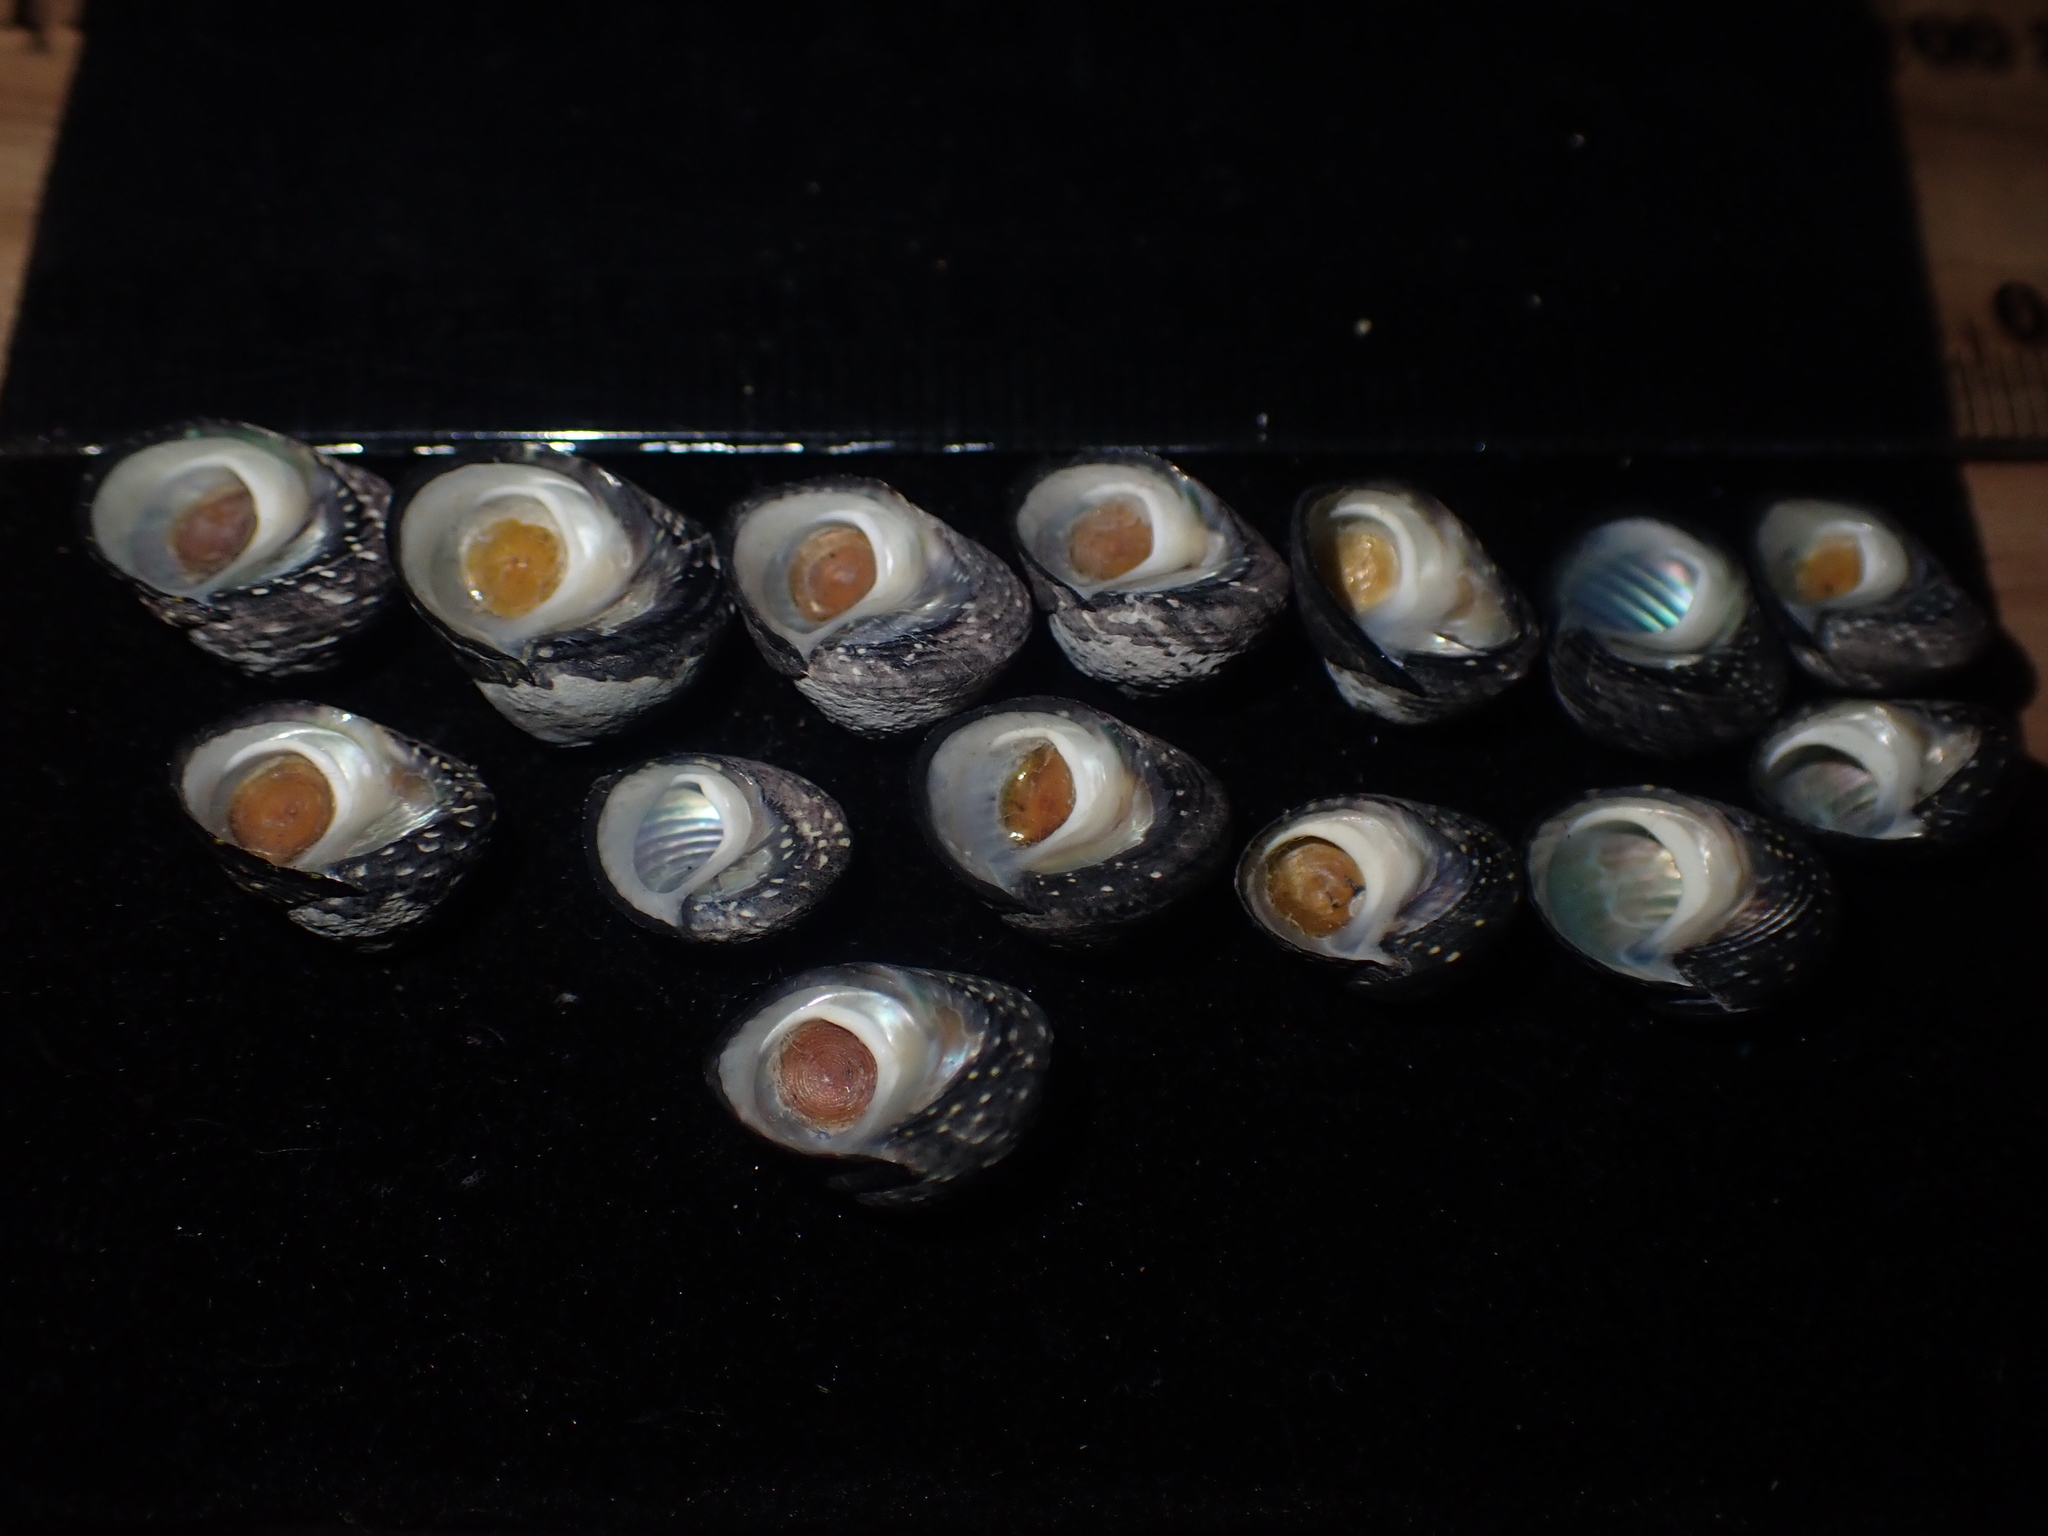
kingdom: Animalia
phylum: Mollusca
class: Gastropoda
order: Trochida
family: Trochidae
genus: Diloma
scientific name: Diloma aridum
